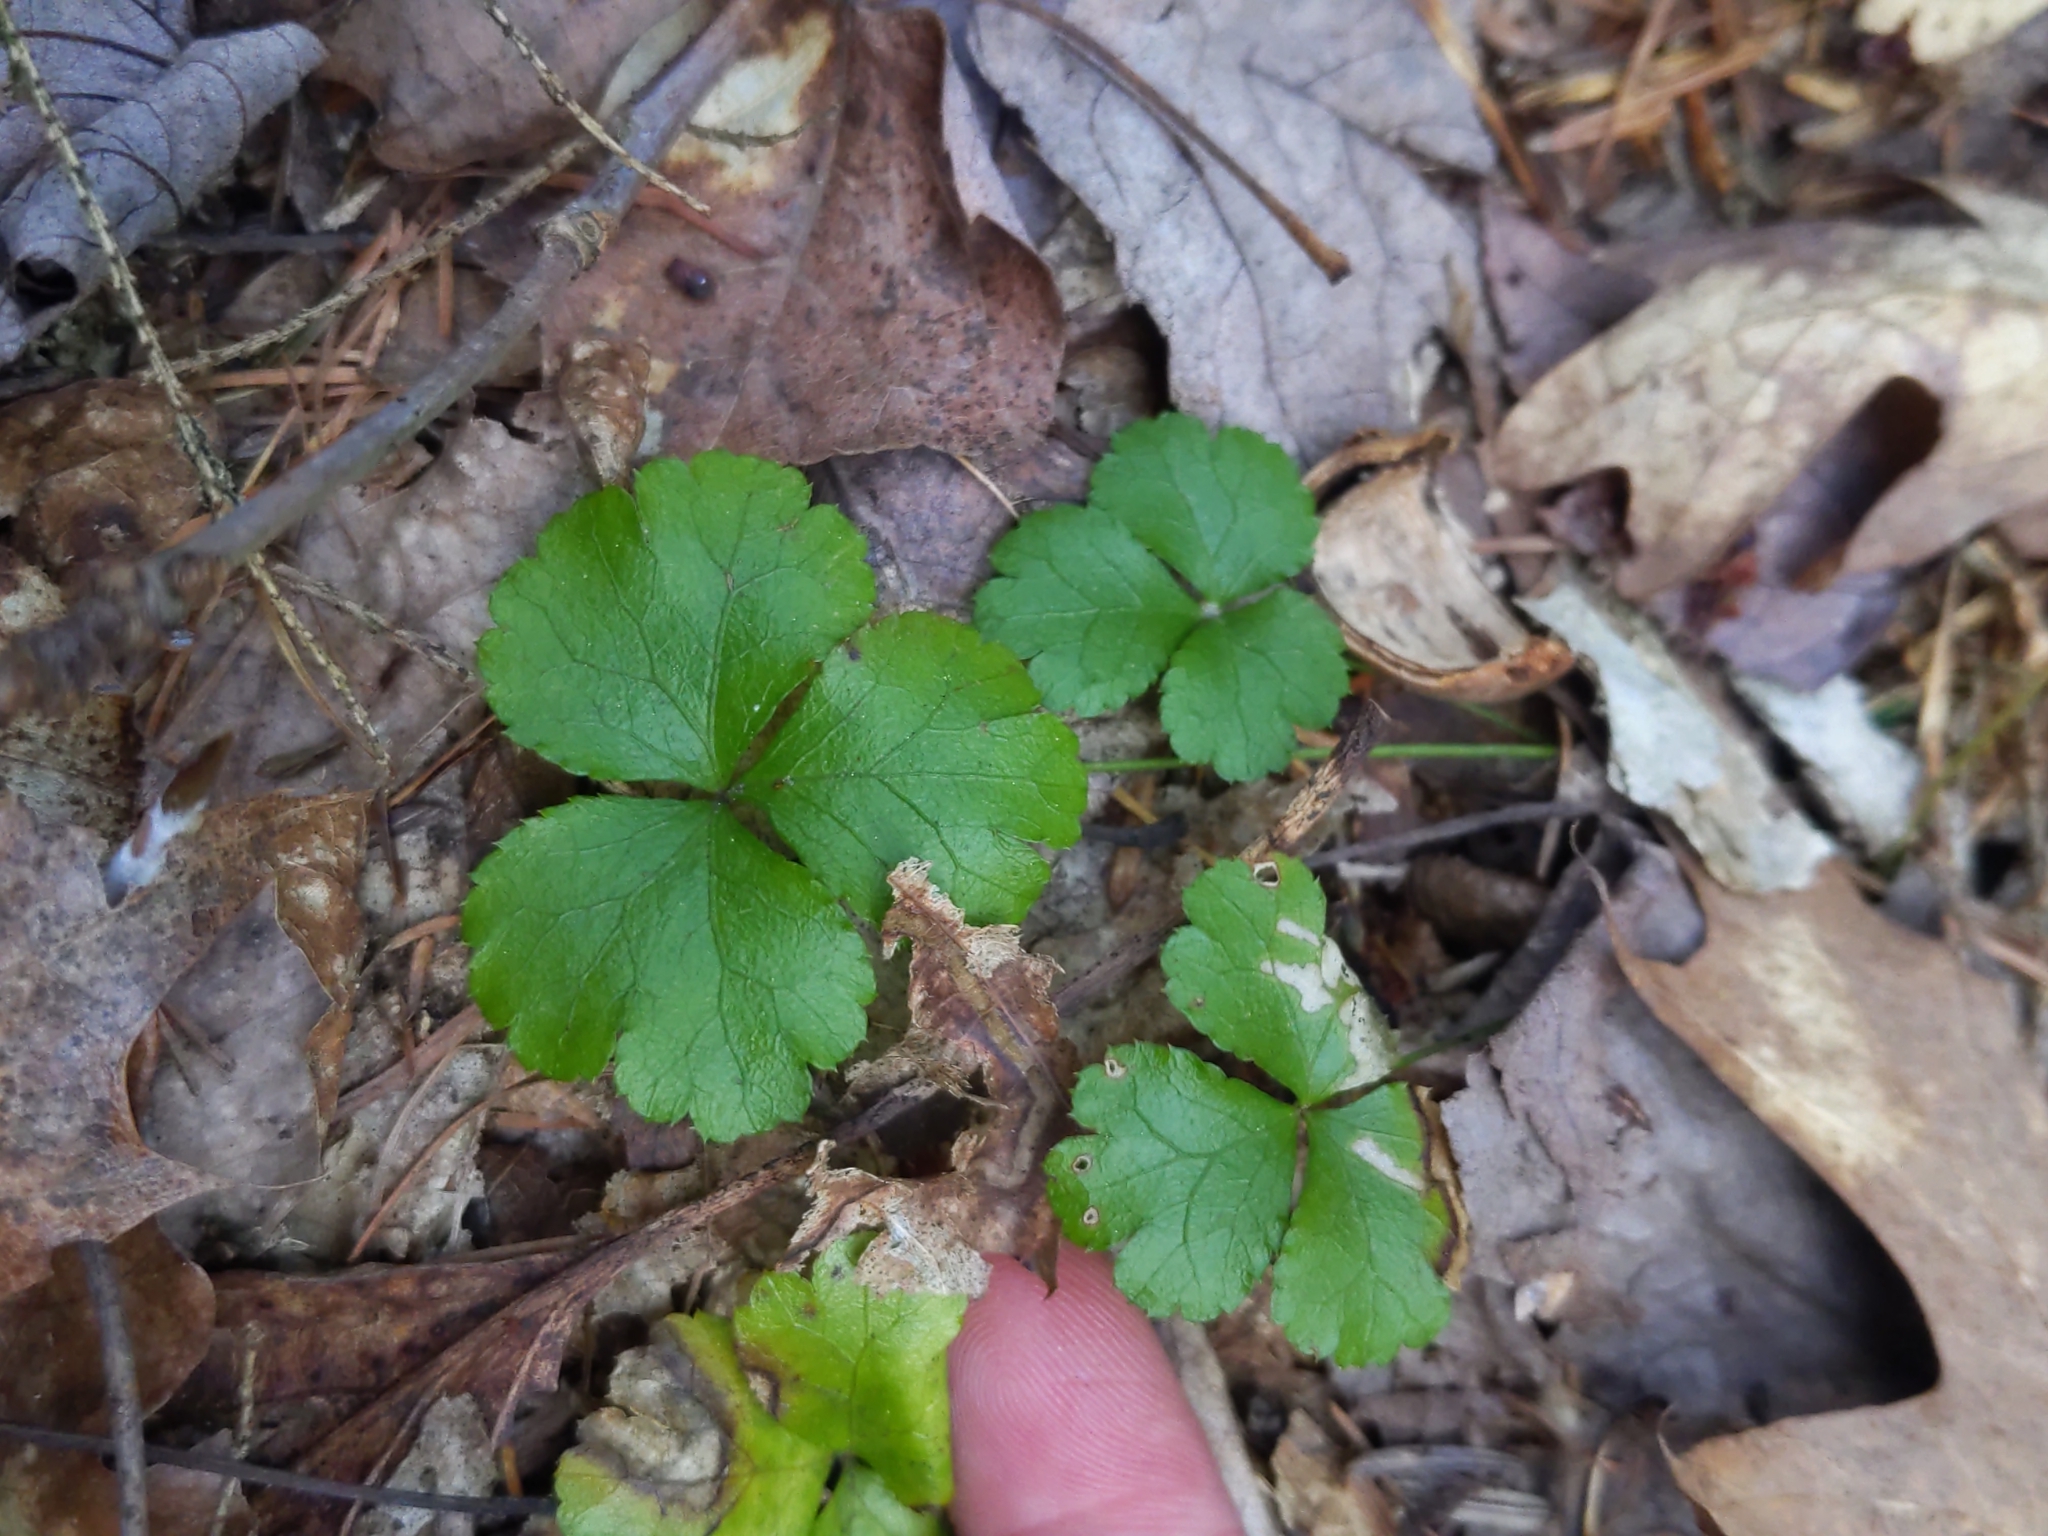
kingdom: Plantae
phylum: Tracheophyta
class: Magnoliopsida
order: Ranunculales
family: Ranunculaceae
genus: Coptis
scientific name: Coptis trifolia
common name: Canker-root
